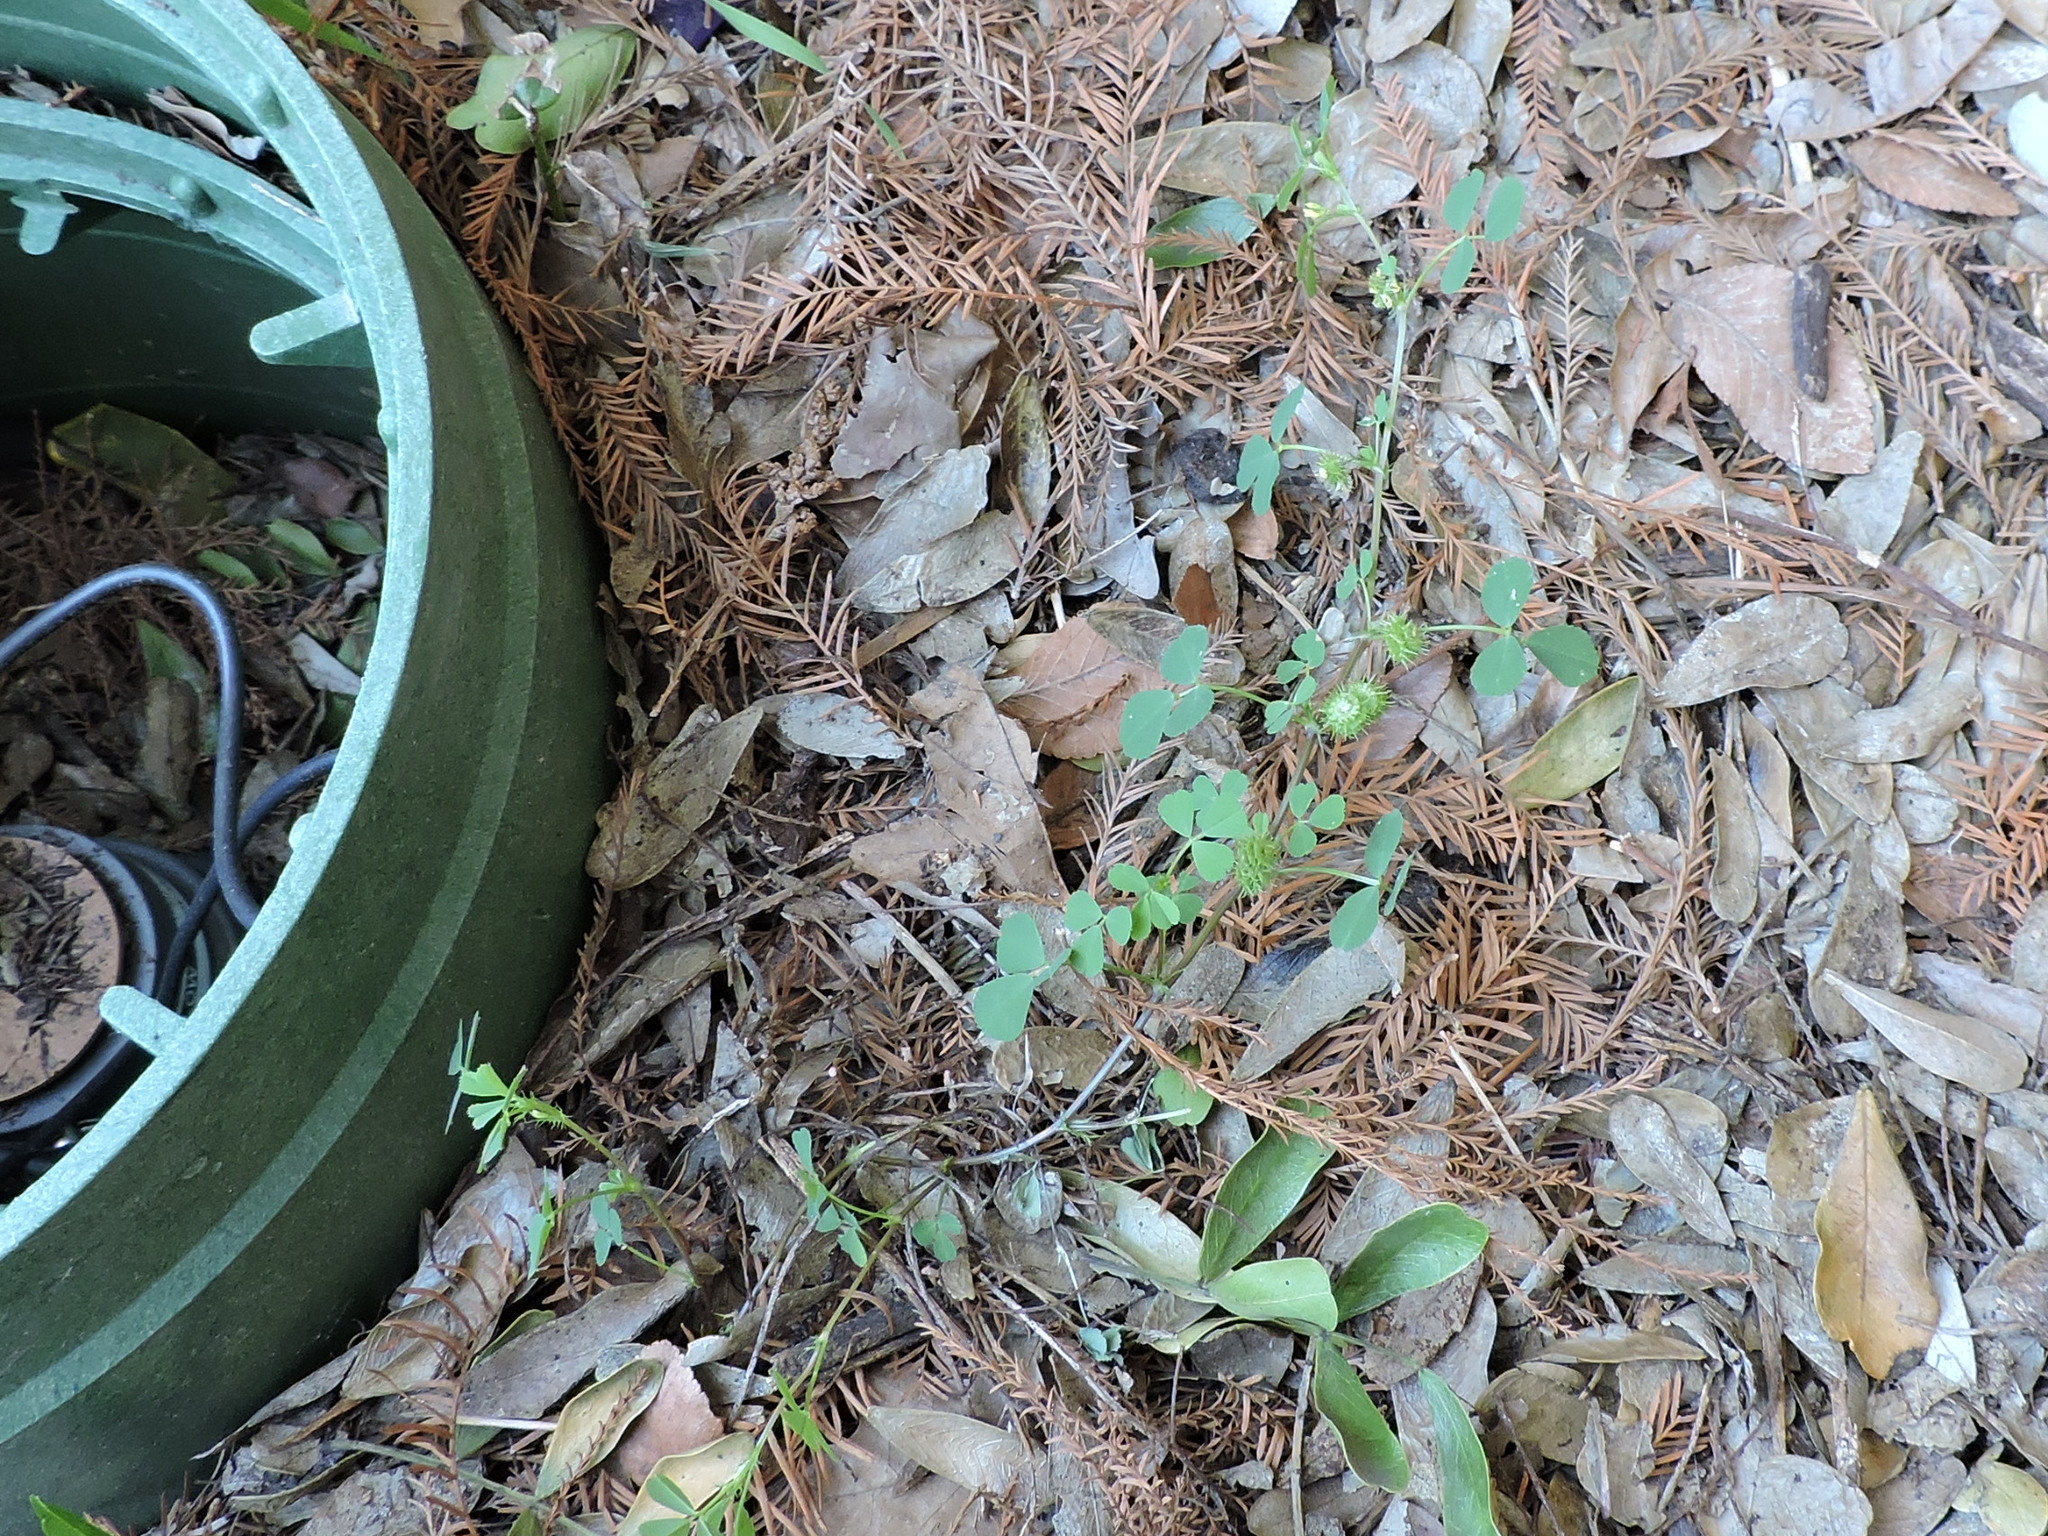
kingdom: Plantae
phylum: Tracheophyta
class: Magnoliopsida
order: Fabales
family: Fabaceae
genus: Medicago
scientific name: Medicago polymorpha
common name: Burclover
